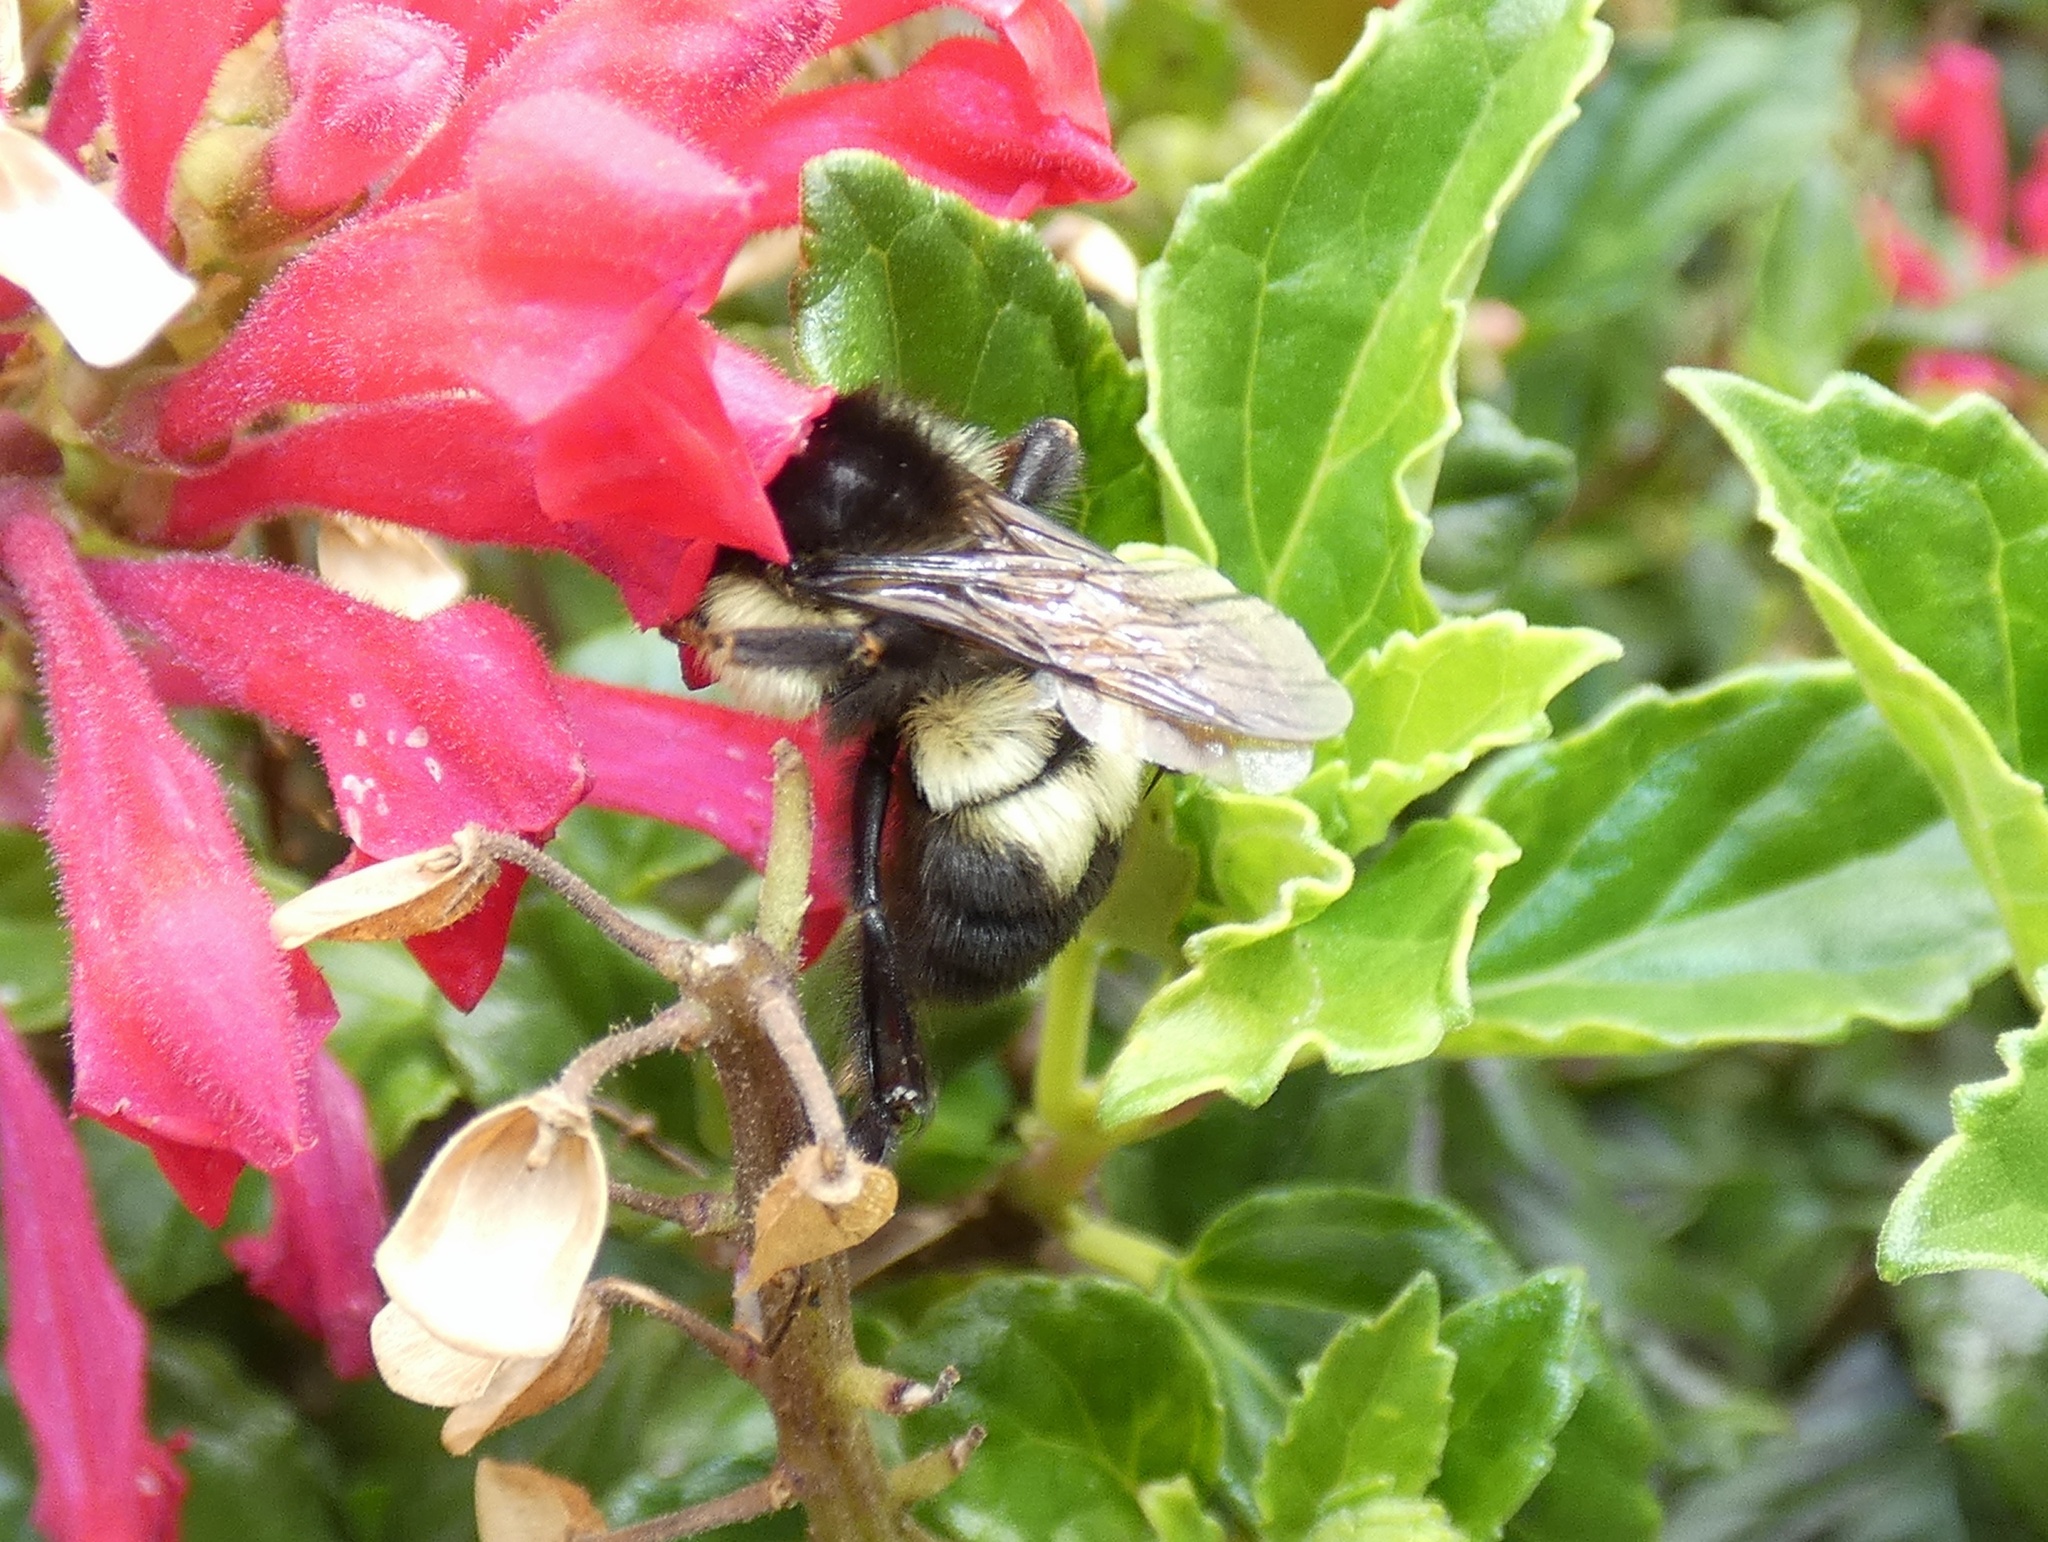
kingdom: Animalia
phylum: Arthropoda
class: Insecta
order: Hymenoptera
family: Apidae
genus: Bombus
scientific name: Bombus ephippiatus
